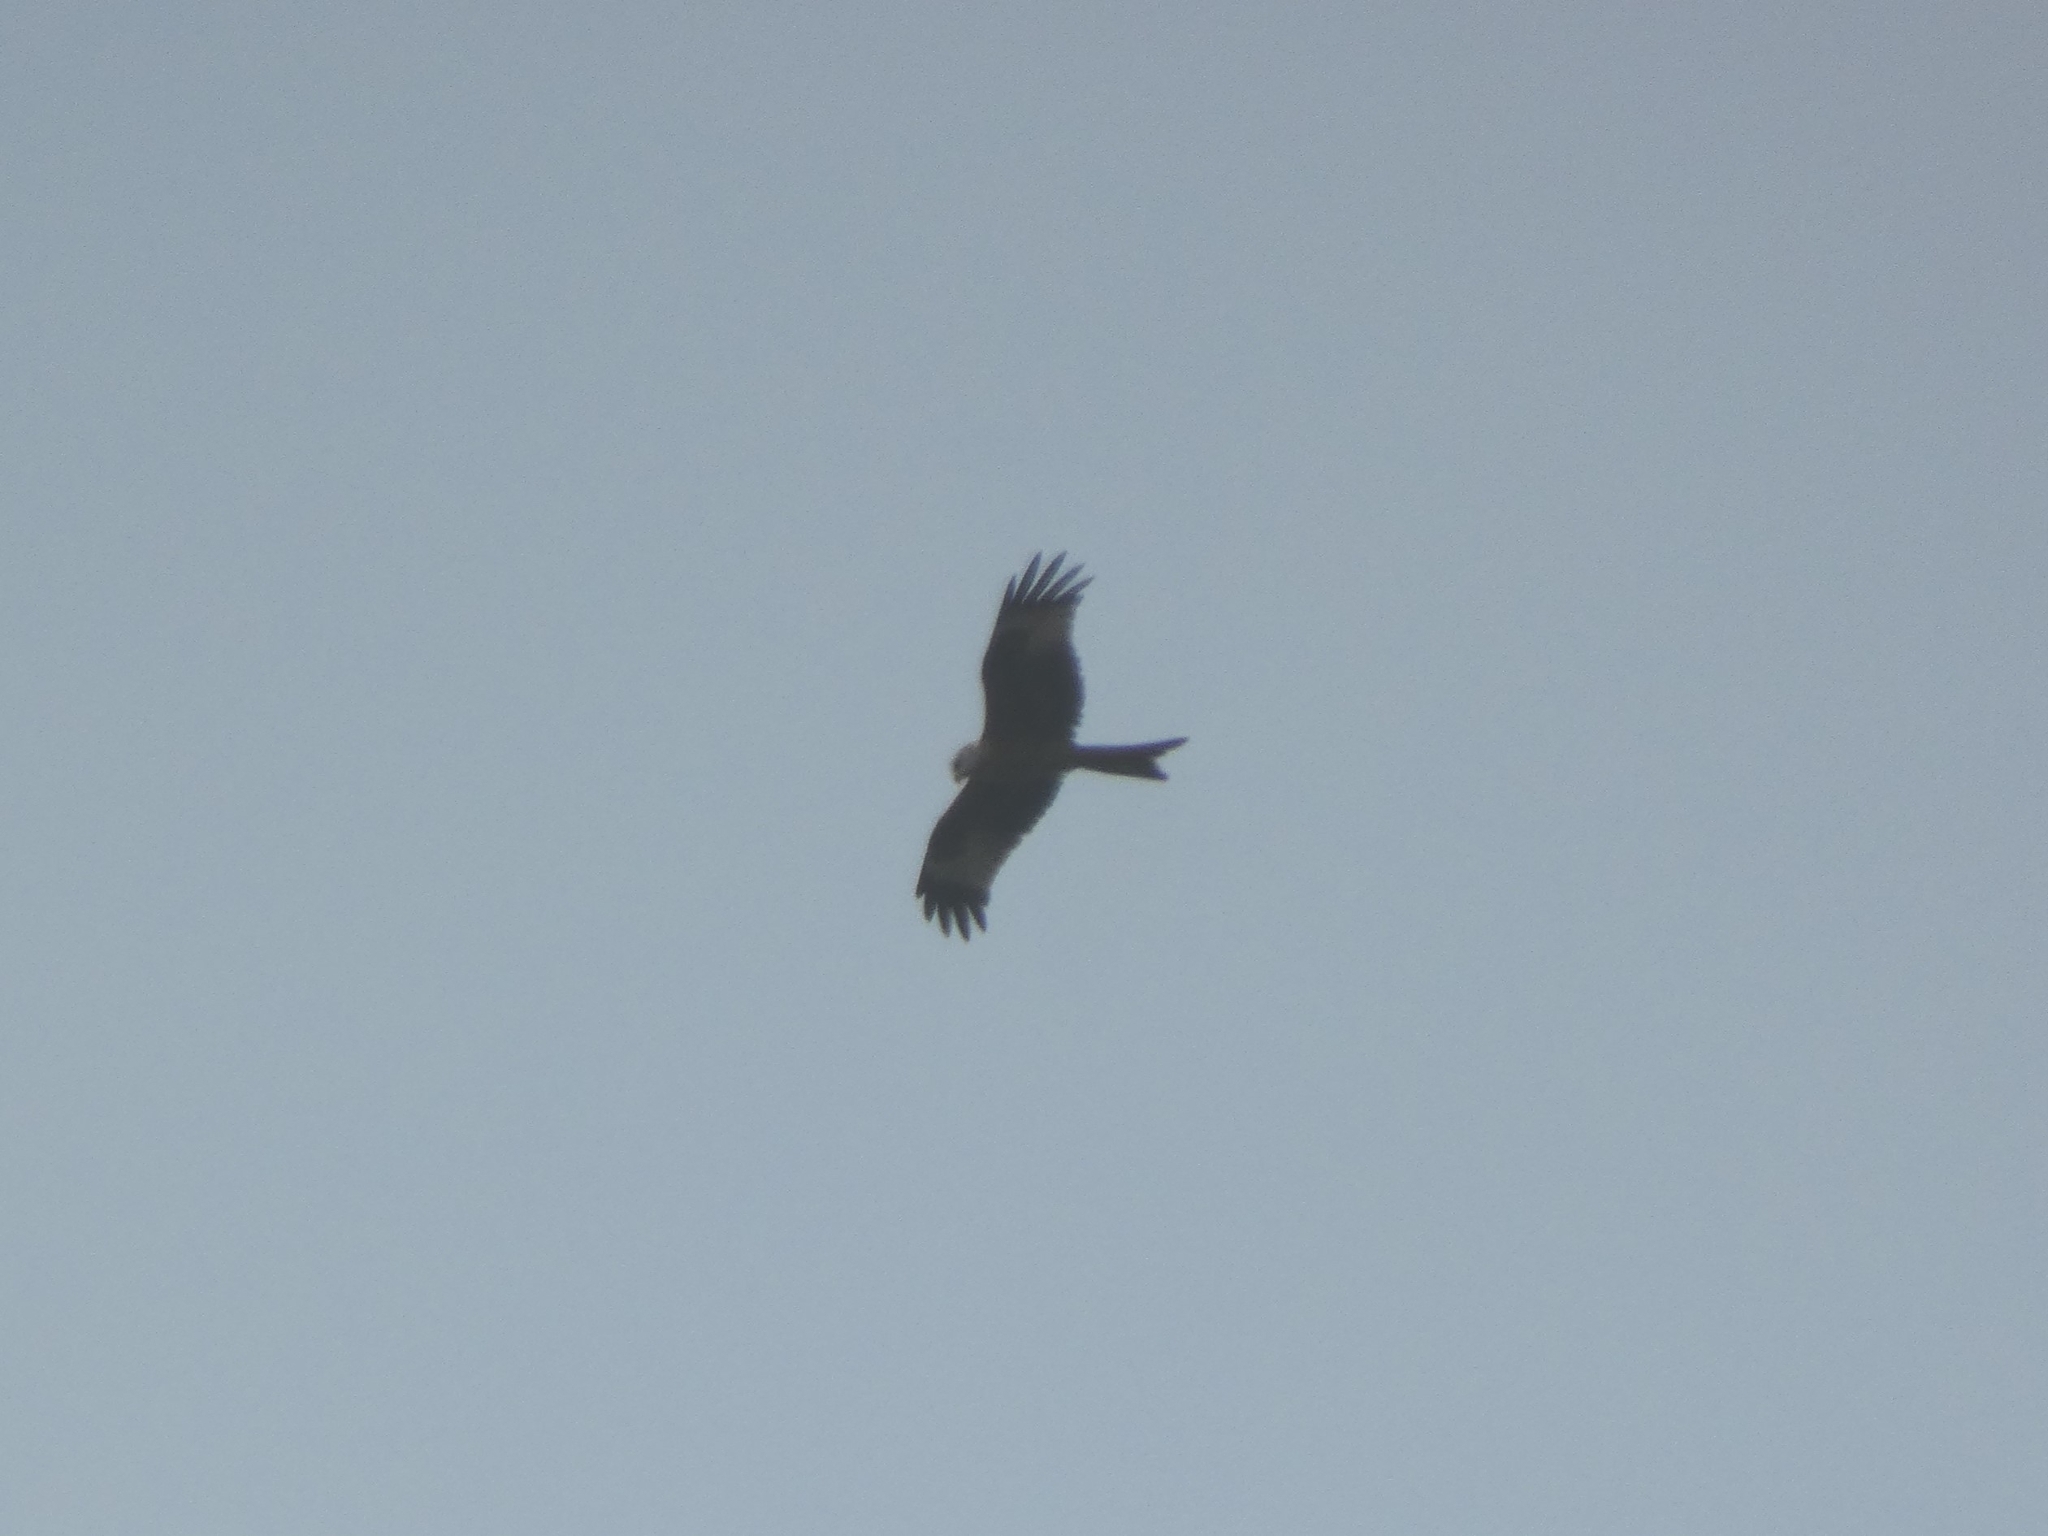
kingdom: Animalia
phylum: Chordata
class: Aves
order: Accipitriformes
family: Accipitridae
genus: Milvus
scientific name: Milvus milvus
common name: Red kite
